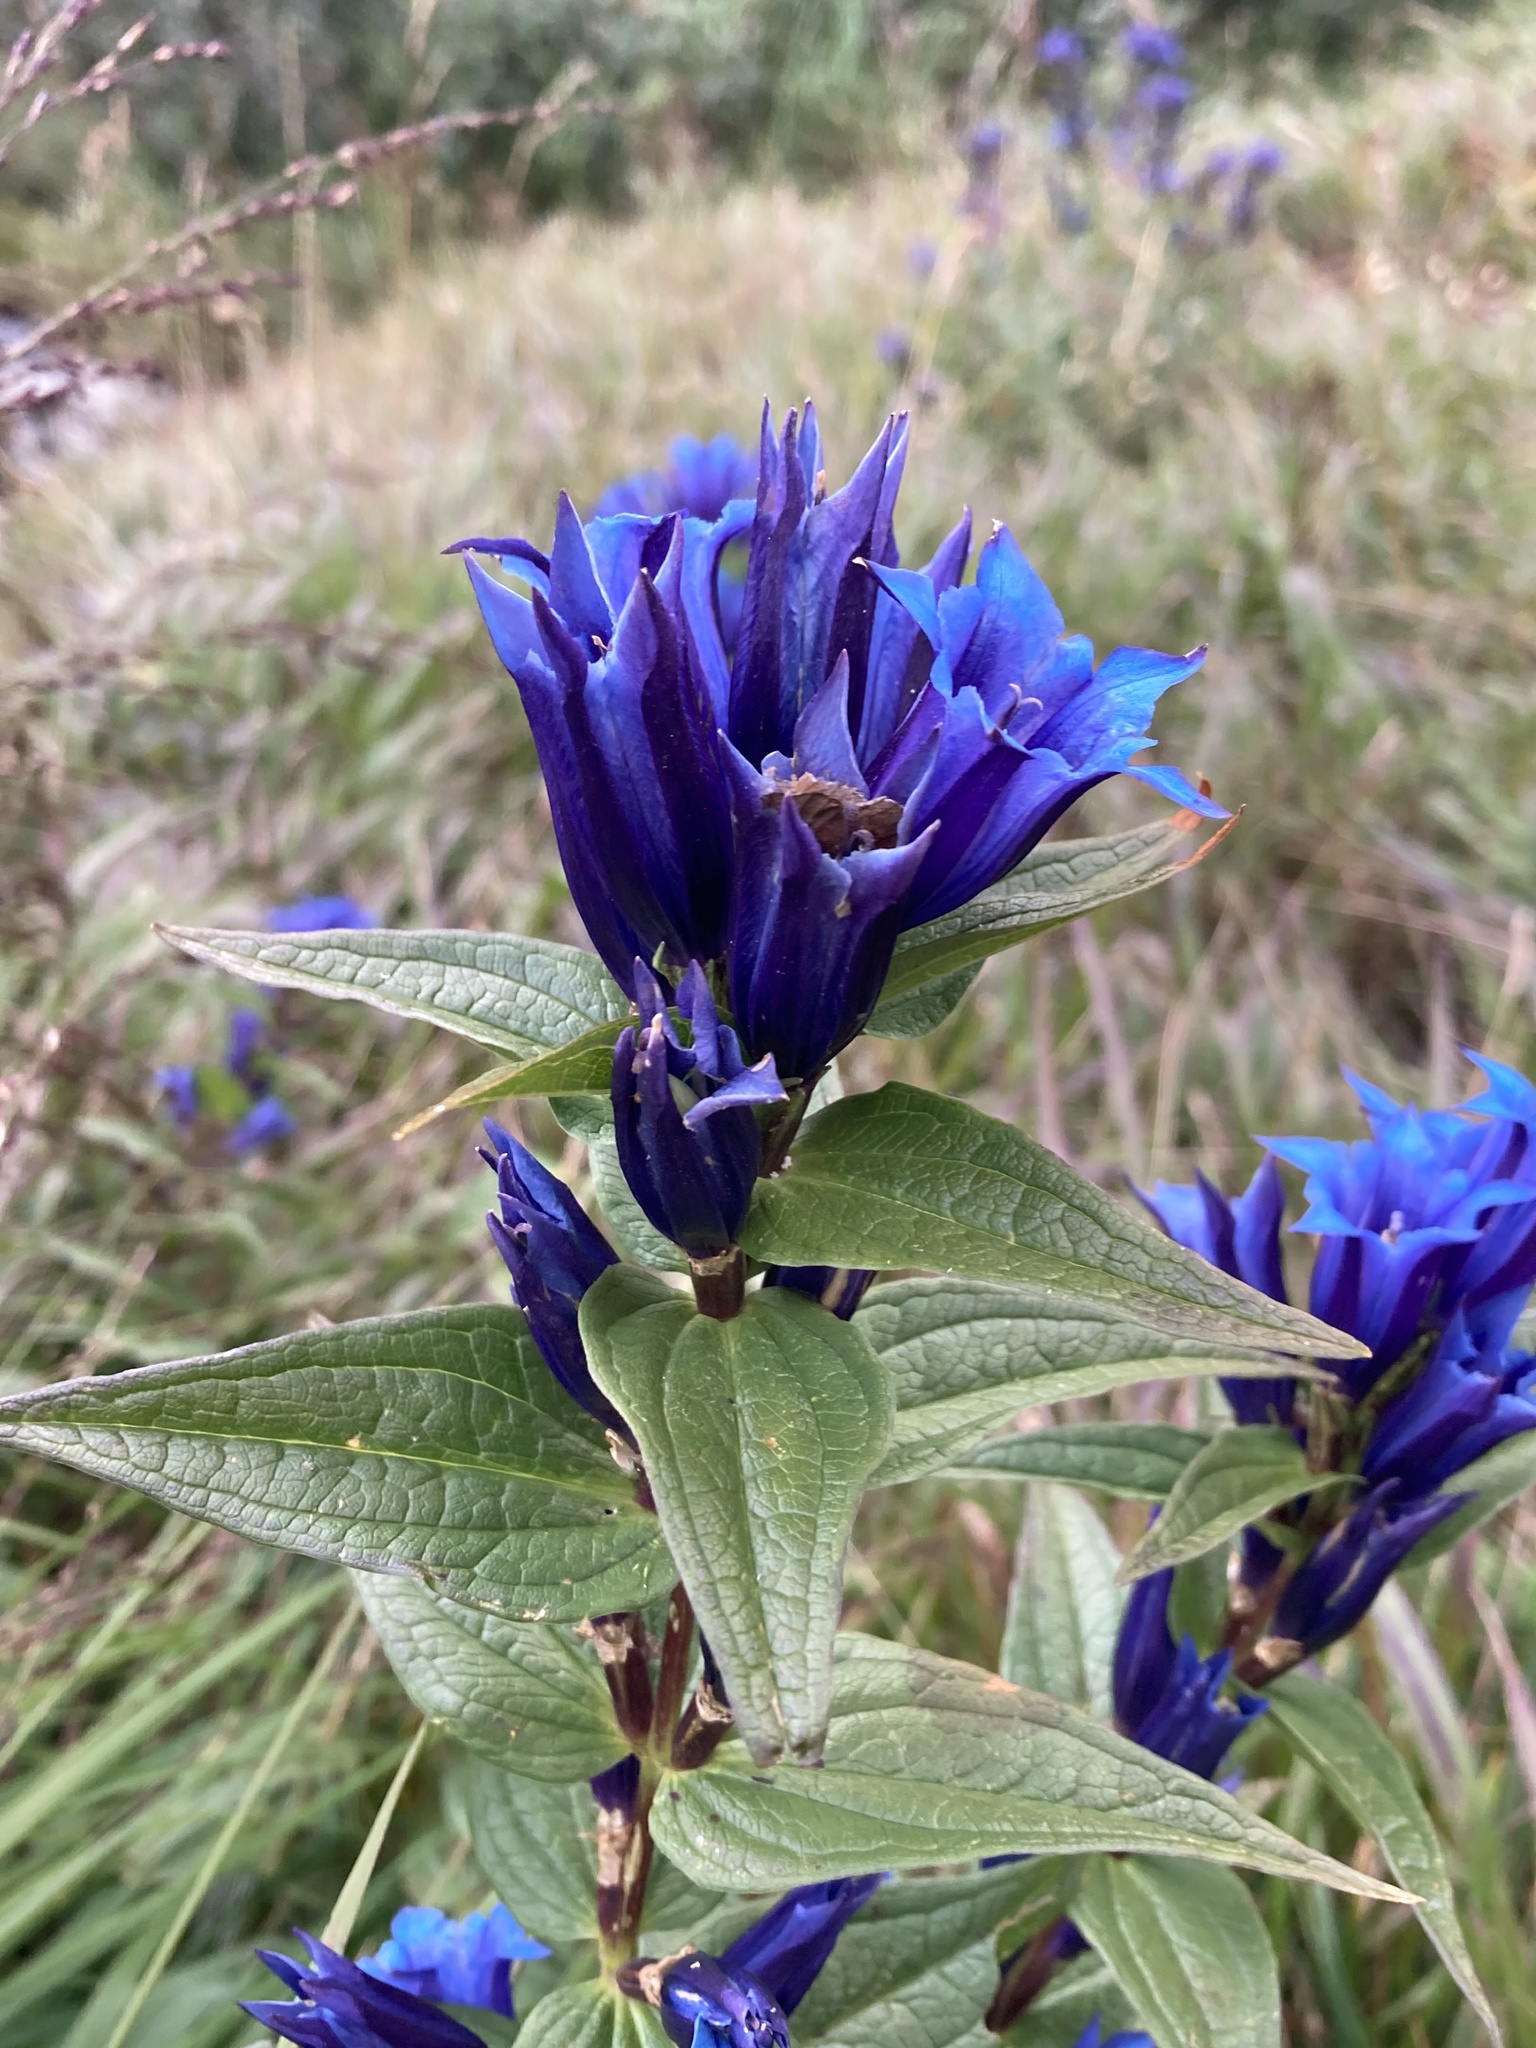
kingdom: Plantae
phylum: Tracheophyta
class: Magnoliopsida
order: Gentianales
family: Gentianaceae
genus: Gentiana
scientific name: Gentiana asclepiadea
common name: Willow gentian
